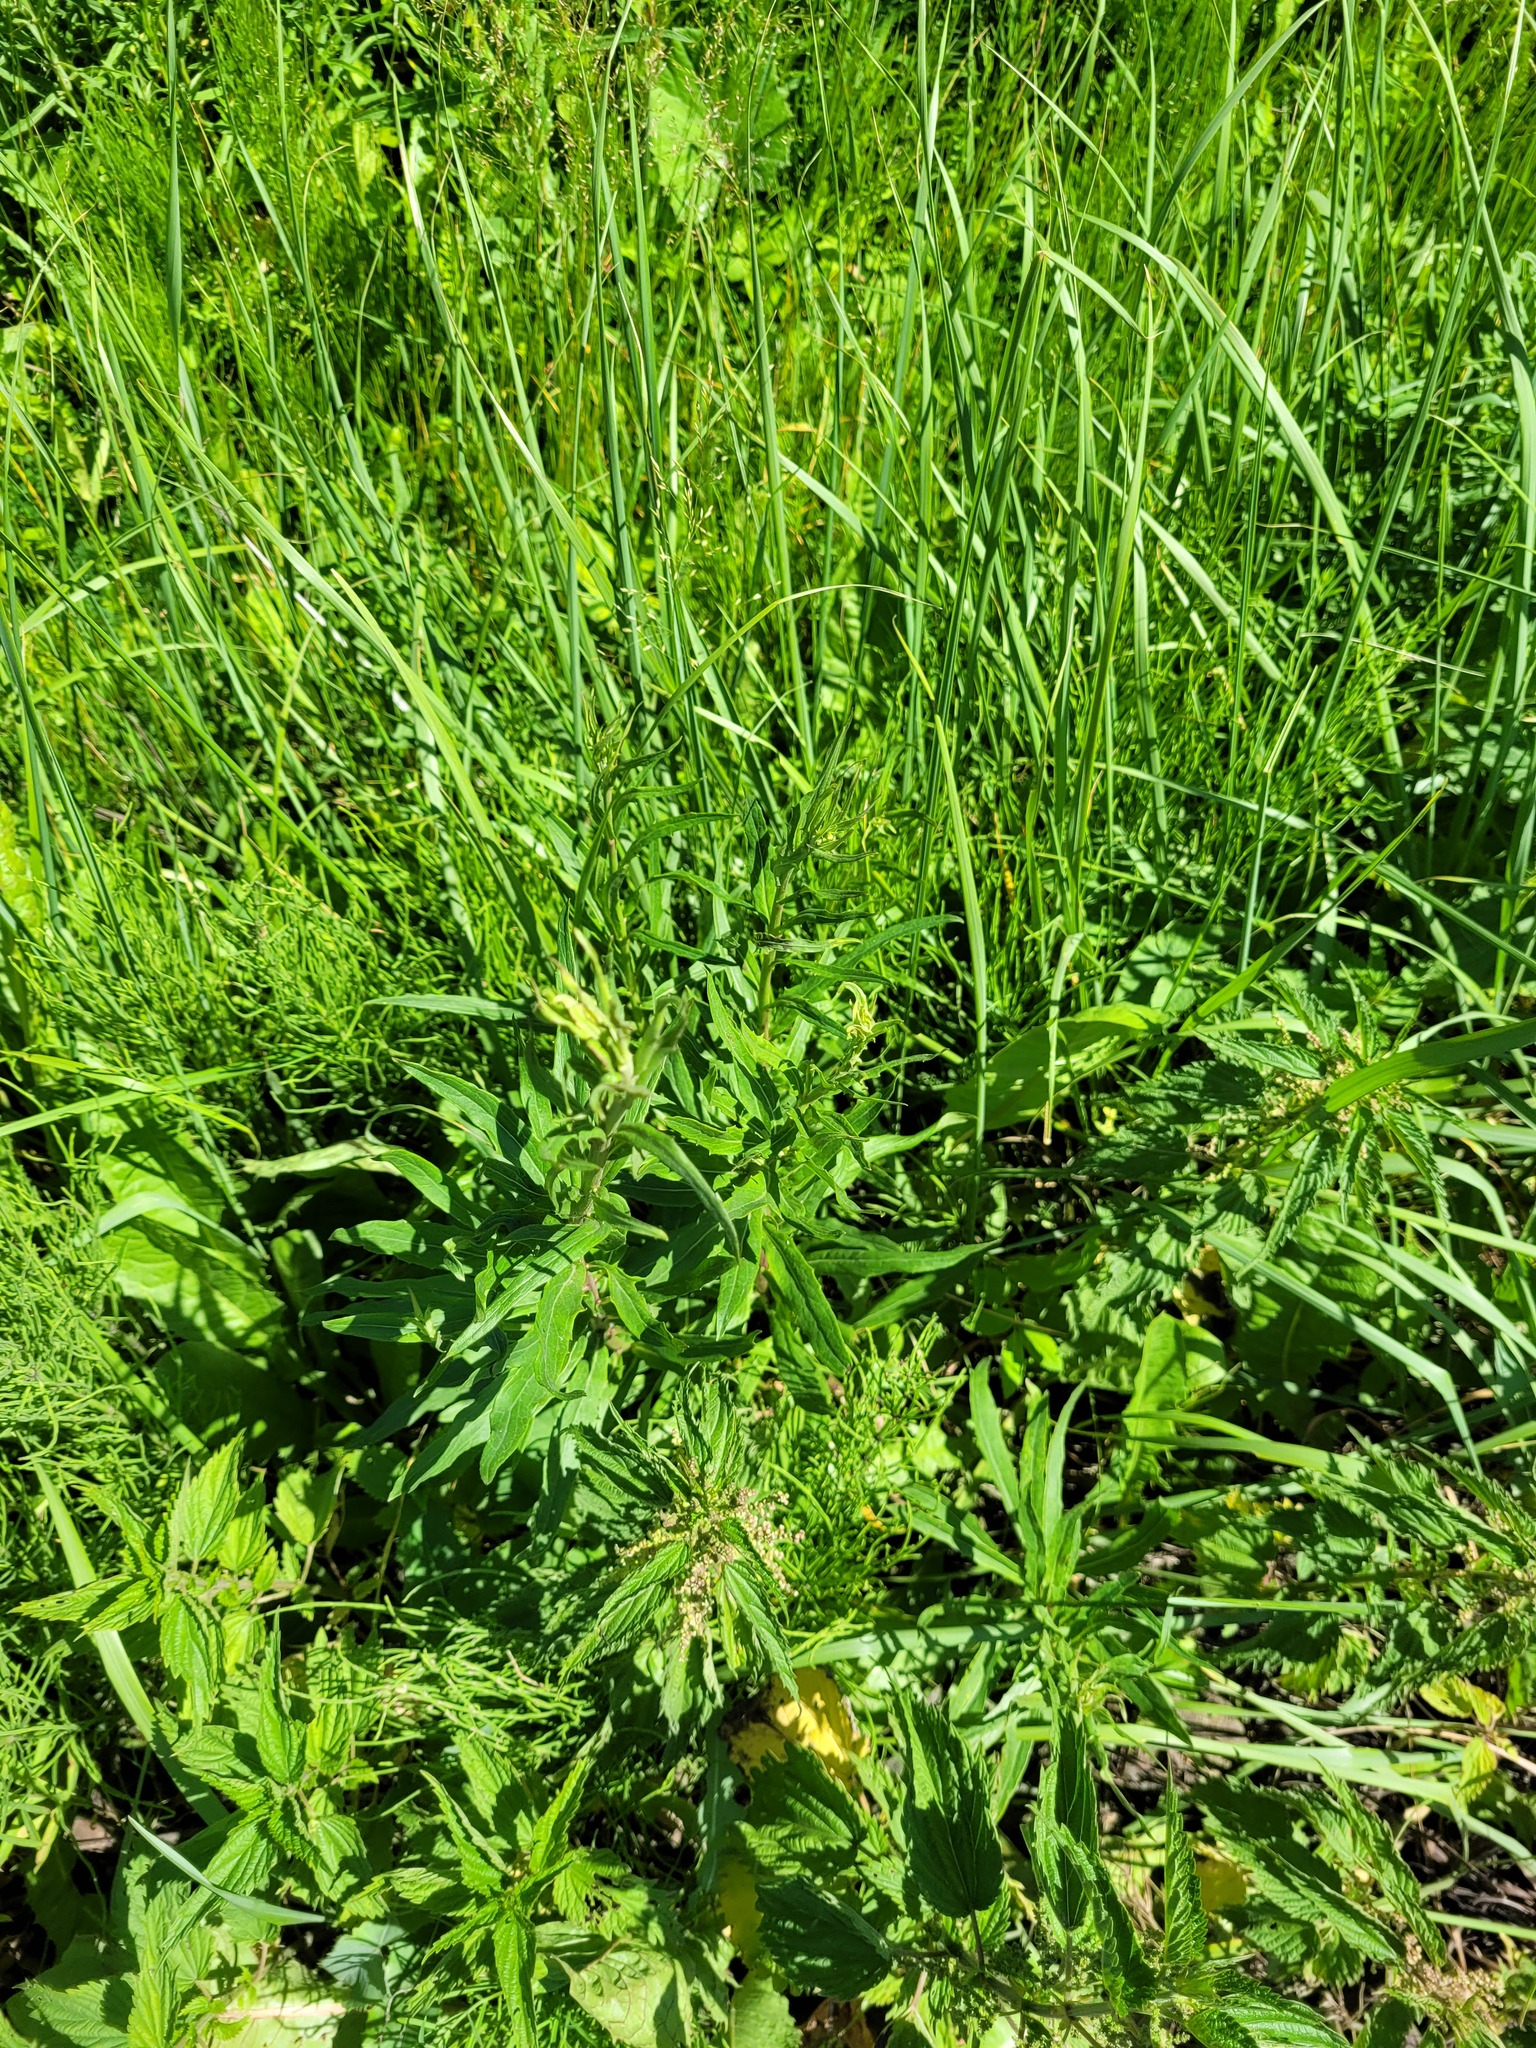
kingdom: Plantae
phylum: Tracheophyta
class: Magnoliopsida
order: Asterales
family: Asteraceae
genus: Hieracium
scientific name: Hieracium umbellatum
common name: Northern hawkweed
